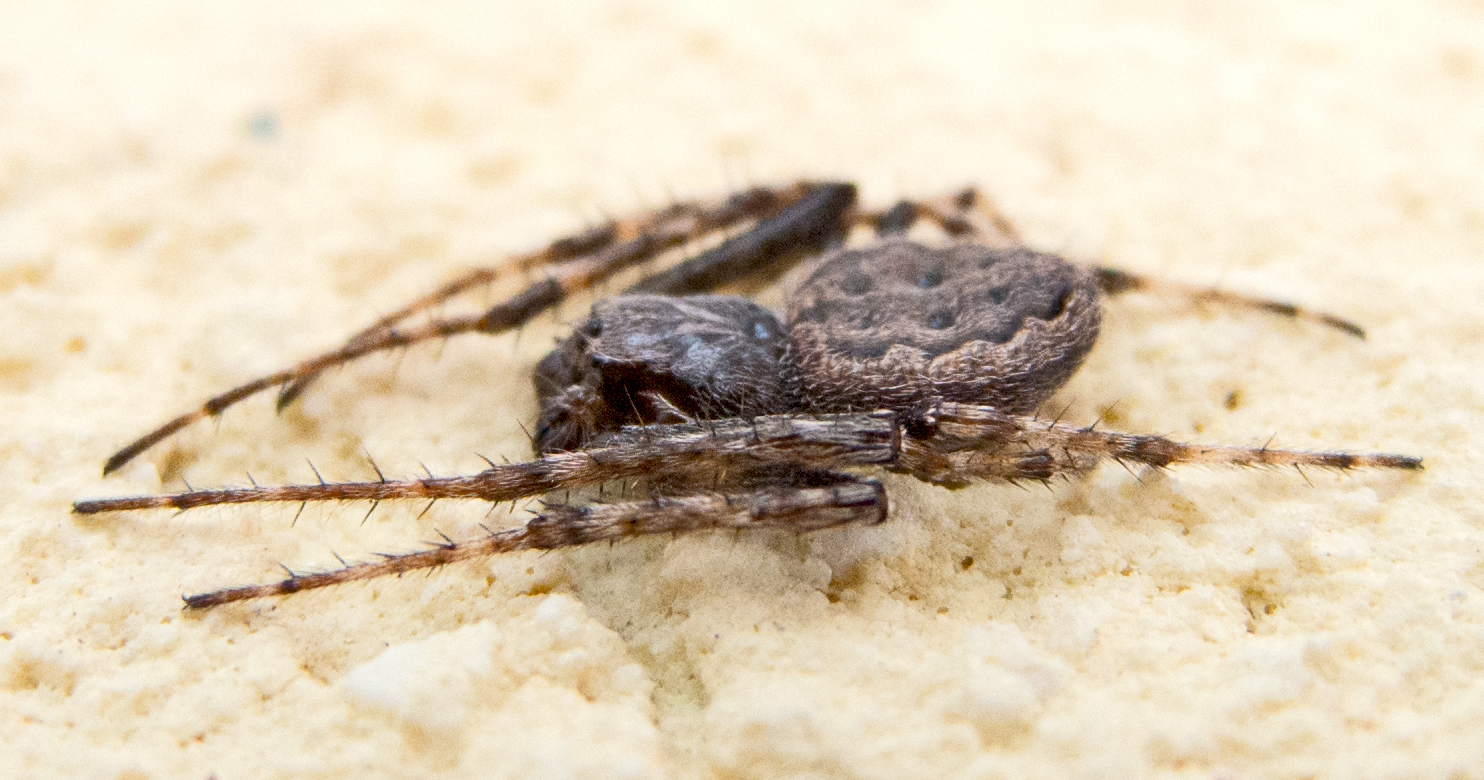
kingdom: Animalia
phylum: Arthropoda
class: Arachnida
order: Araneae
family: Araneidae
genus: Nuctenea
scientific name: Nuctenea umbratica
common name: Toad spider
